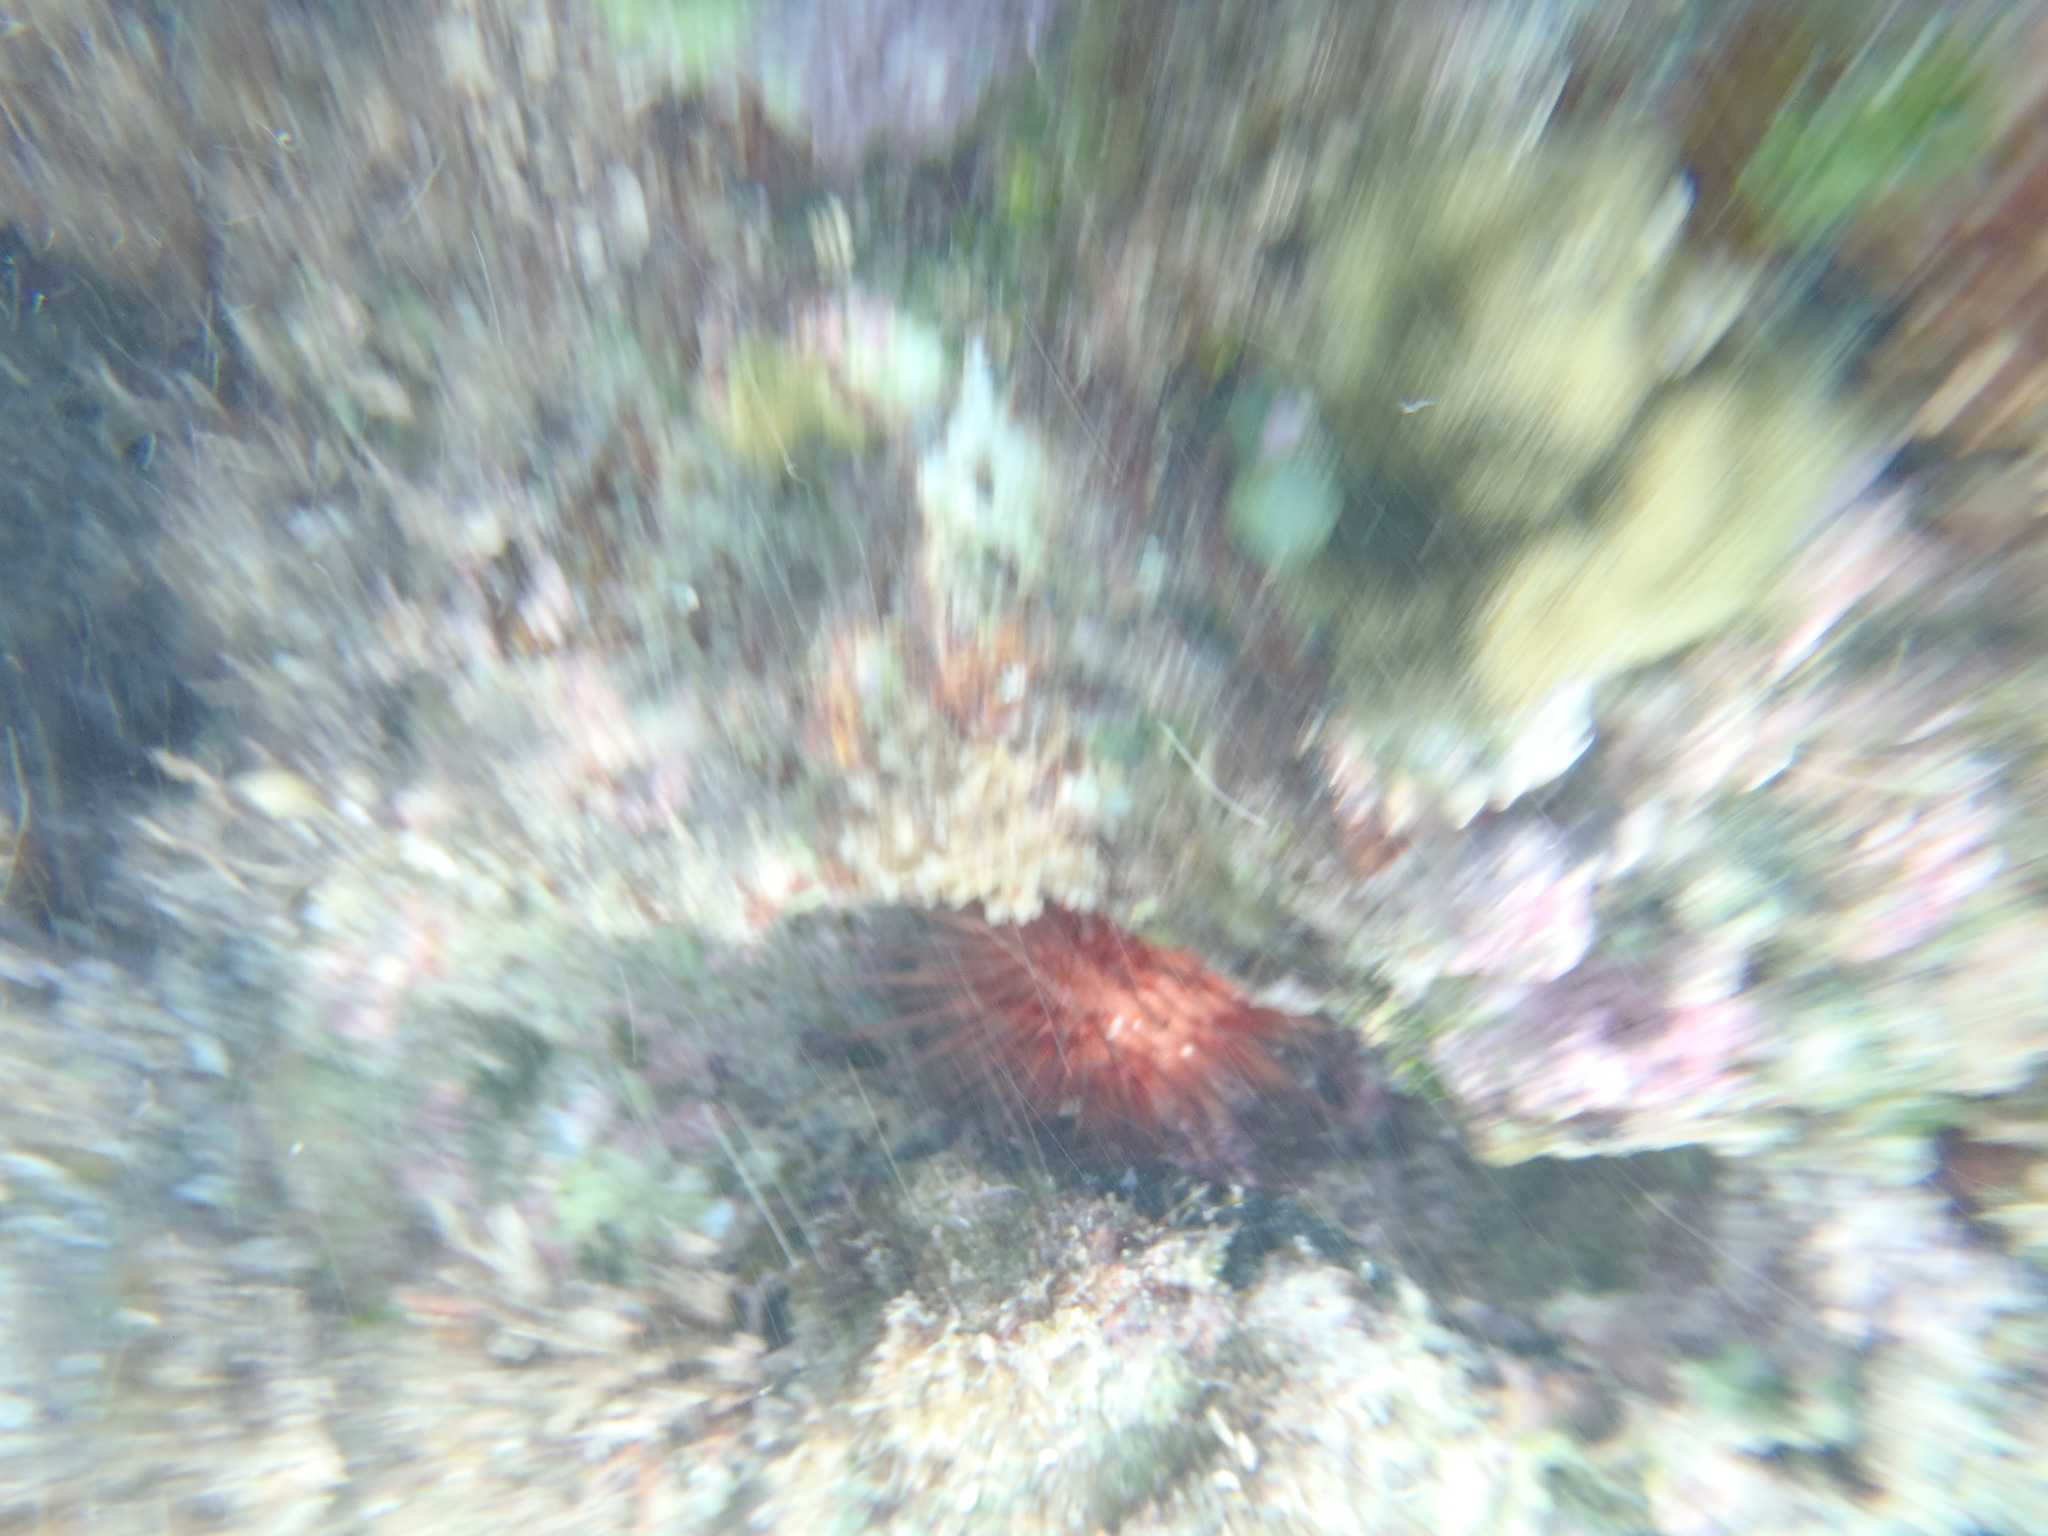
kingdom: Animalia
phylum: Echinodermata
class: Echinoidea
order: Camarodonta
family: Echinometridae
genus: Echinometra
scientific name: Echinometra lucunter
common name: Rock urchin
